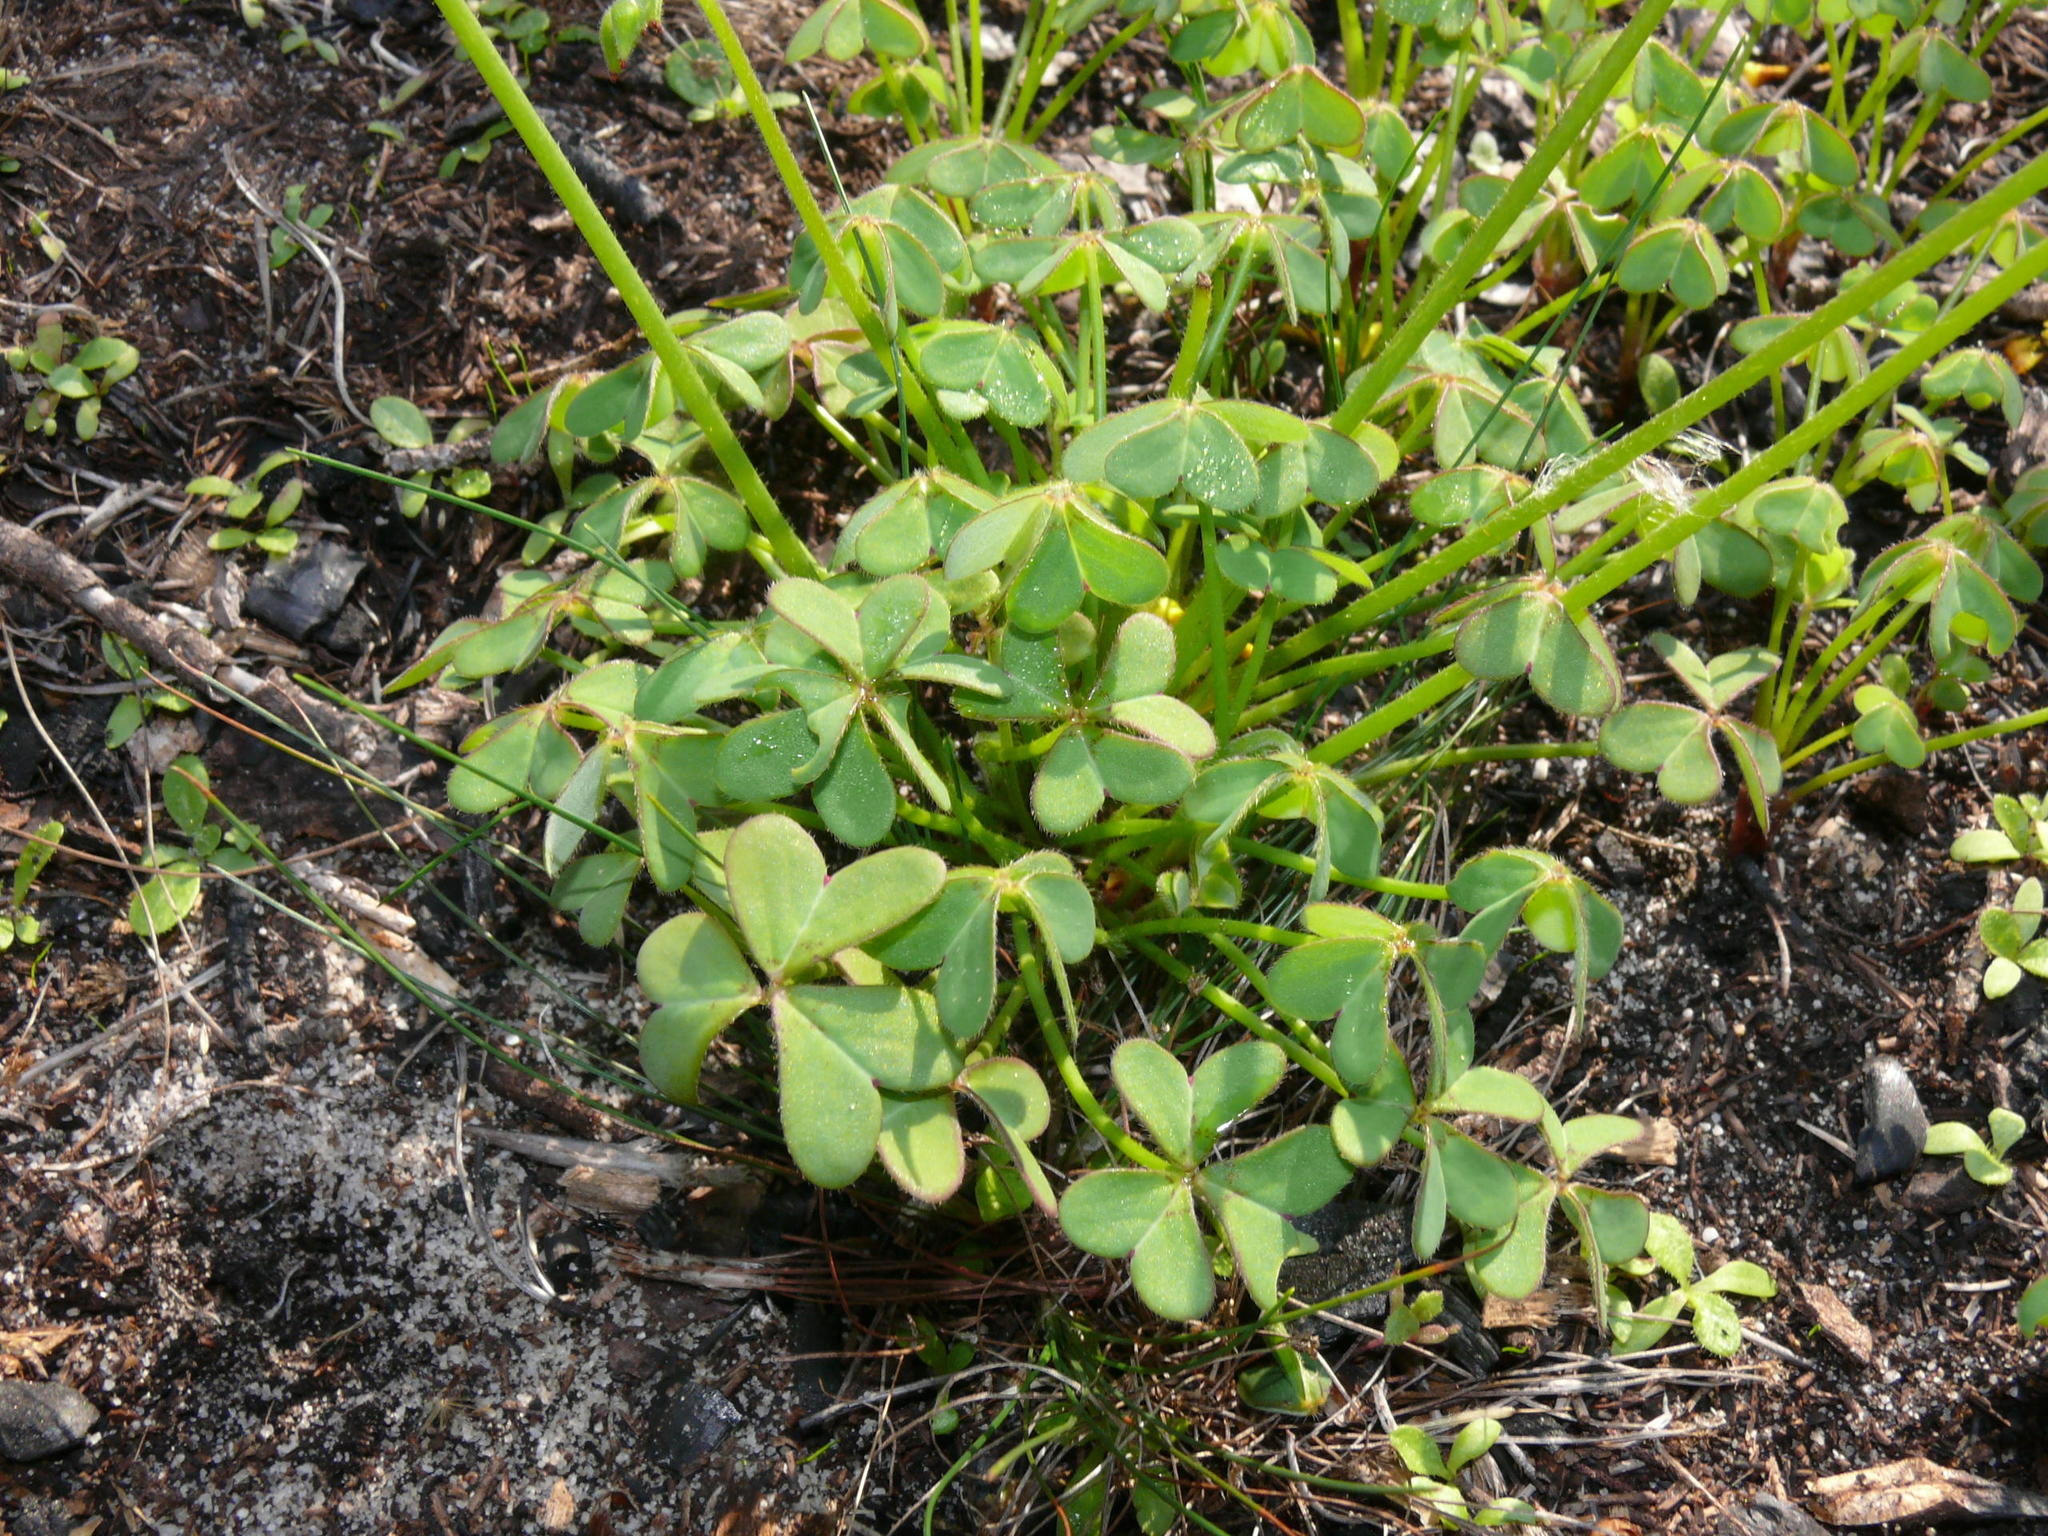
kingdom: Plantae
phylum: Tracheophyta
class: Magnoliopsida
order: Oxalidales
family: Oxalidaceae
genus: Oxalis
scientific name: Oxalis pes-caprae
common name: Bermuda-buttercup
